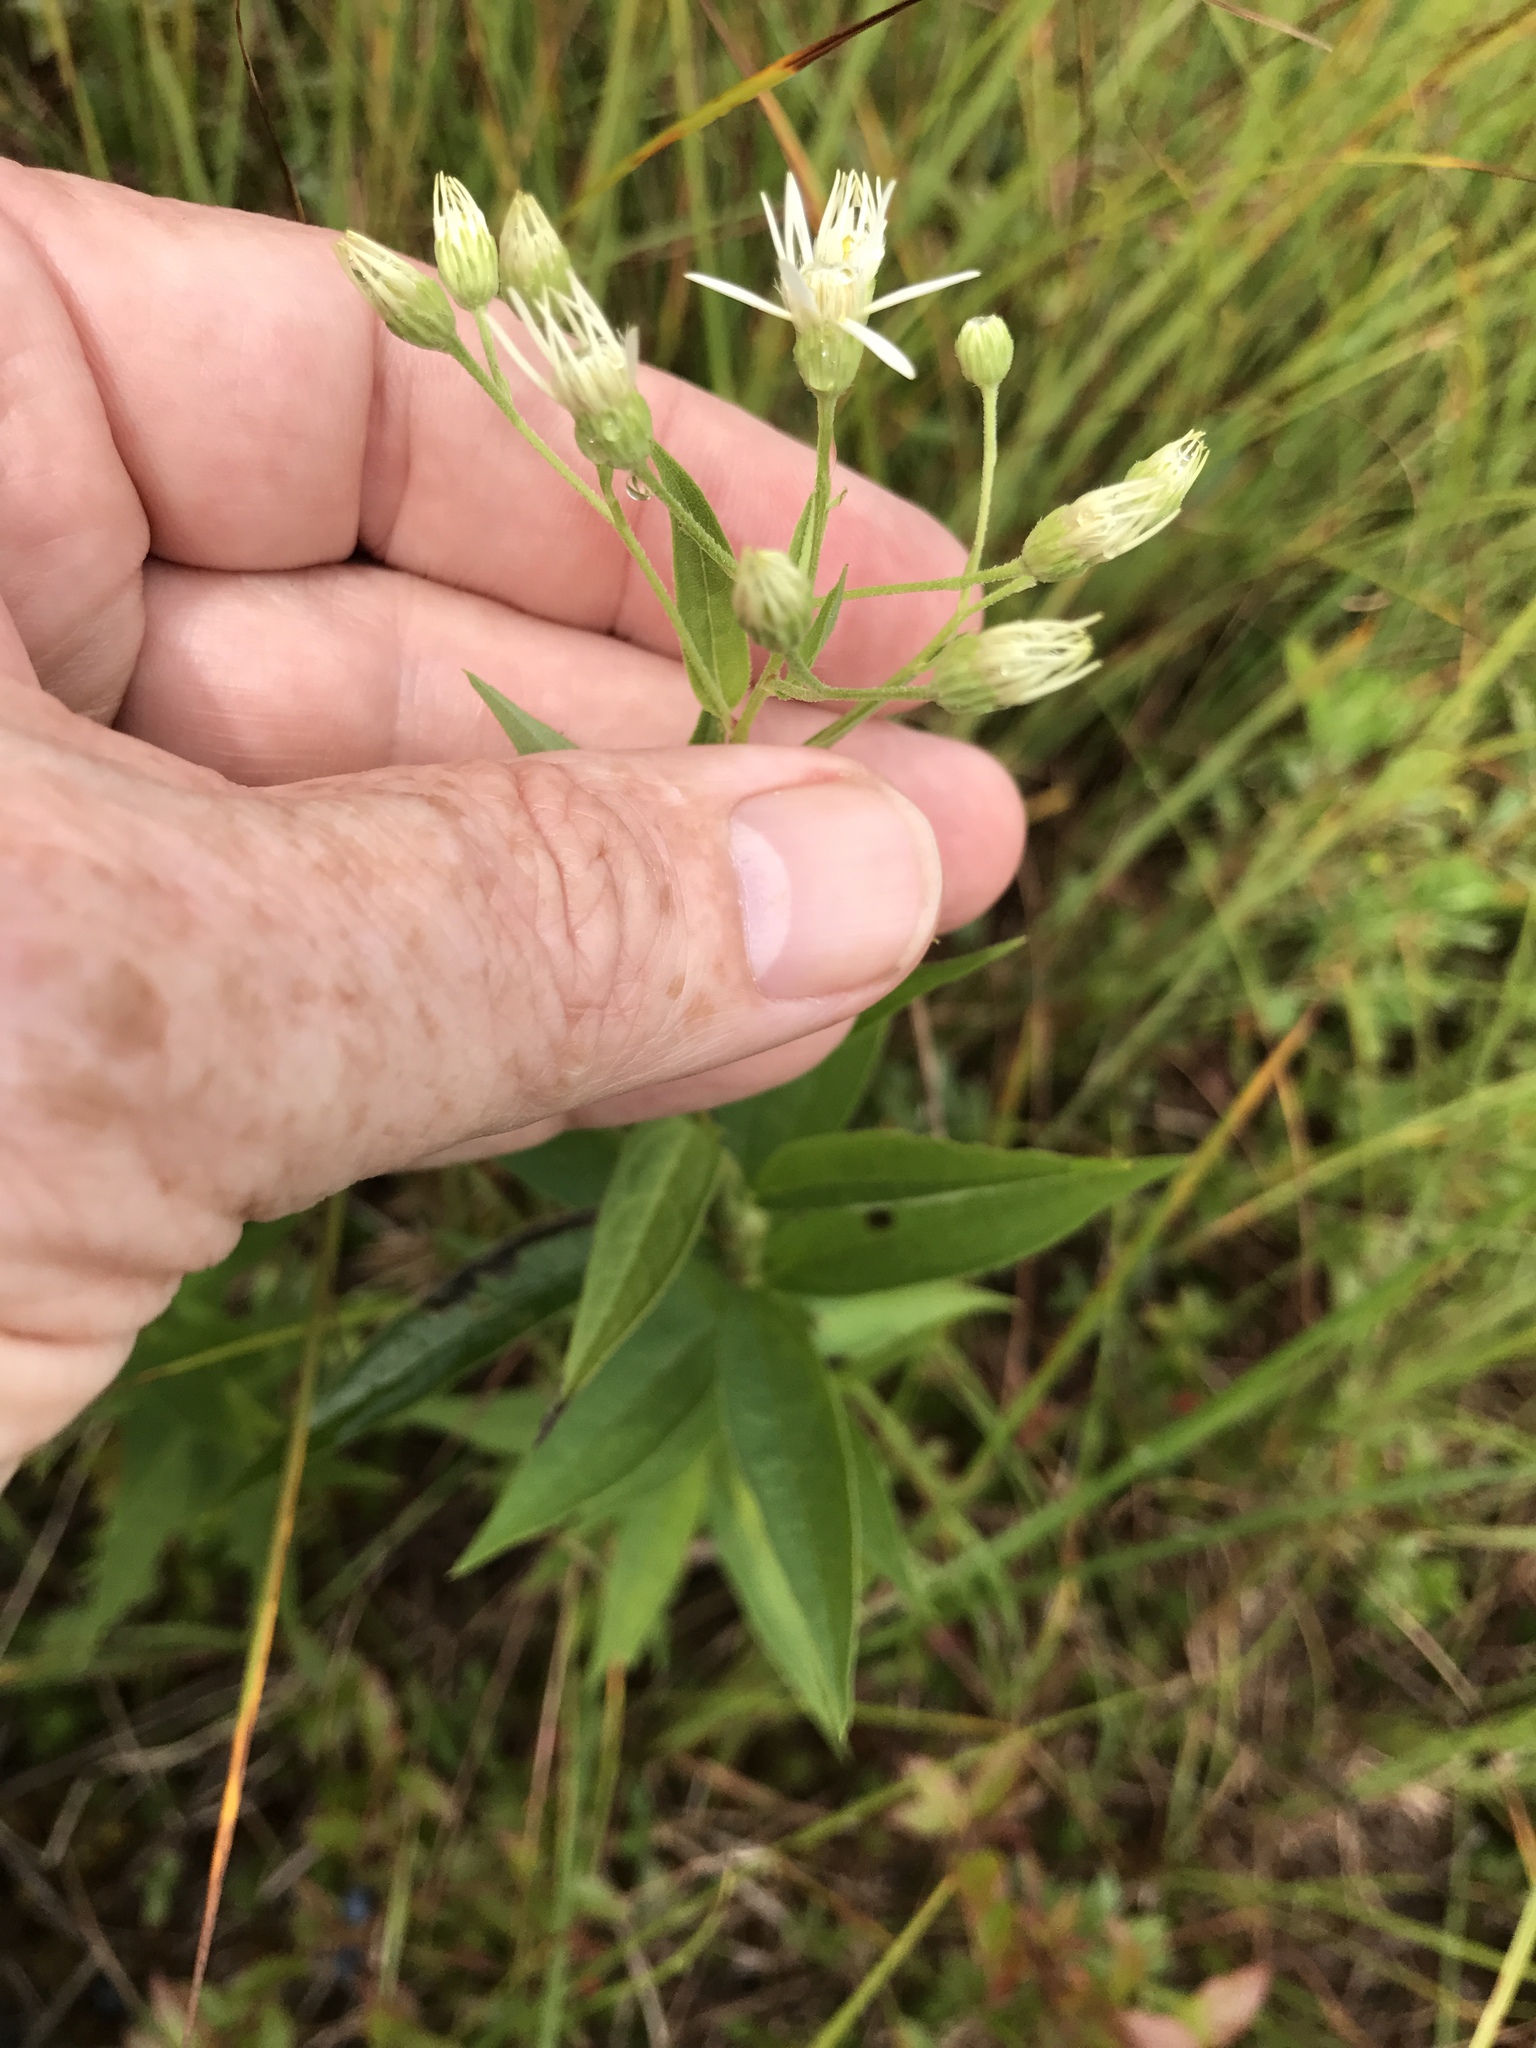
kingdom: Plantae
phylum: Tracheophyta
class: Magnoliopsida
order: Asterales
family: Asteraceae
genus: Doellingeria
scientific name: Doellingeria umbellata
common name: Flat-top white aster
